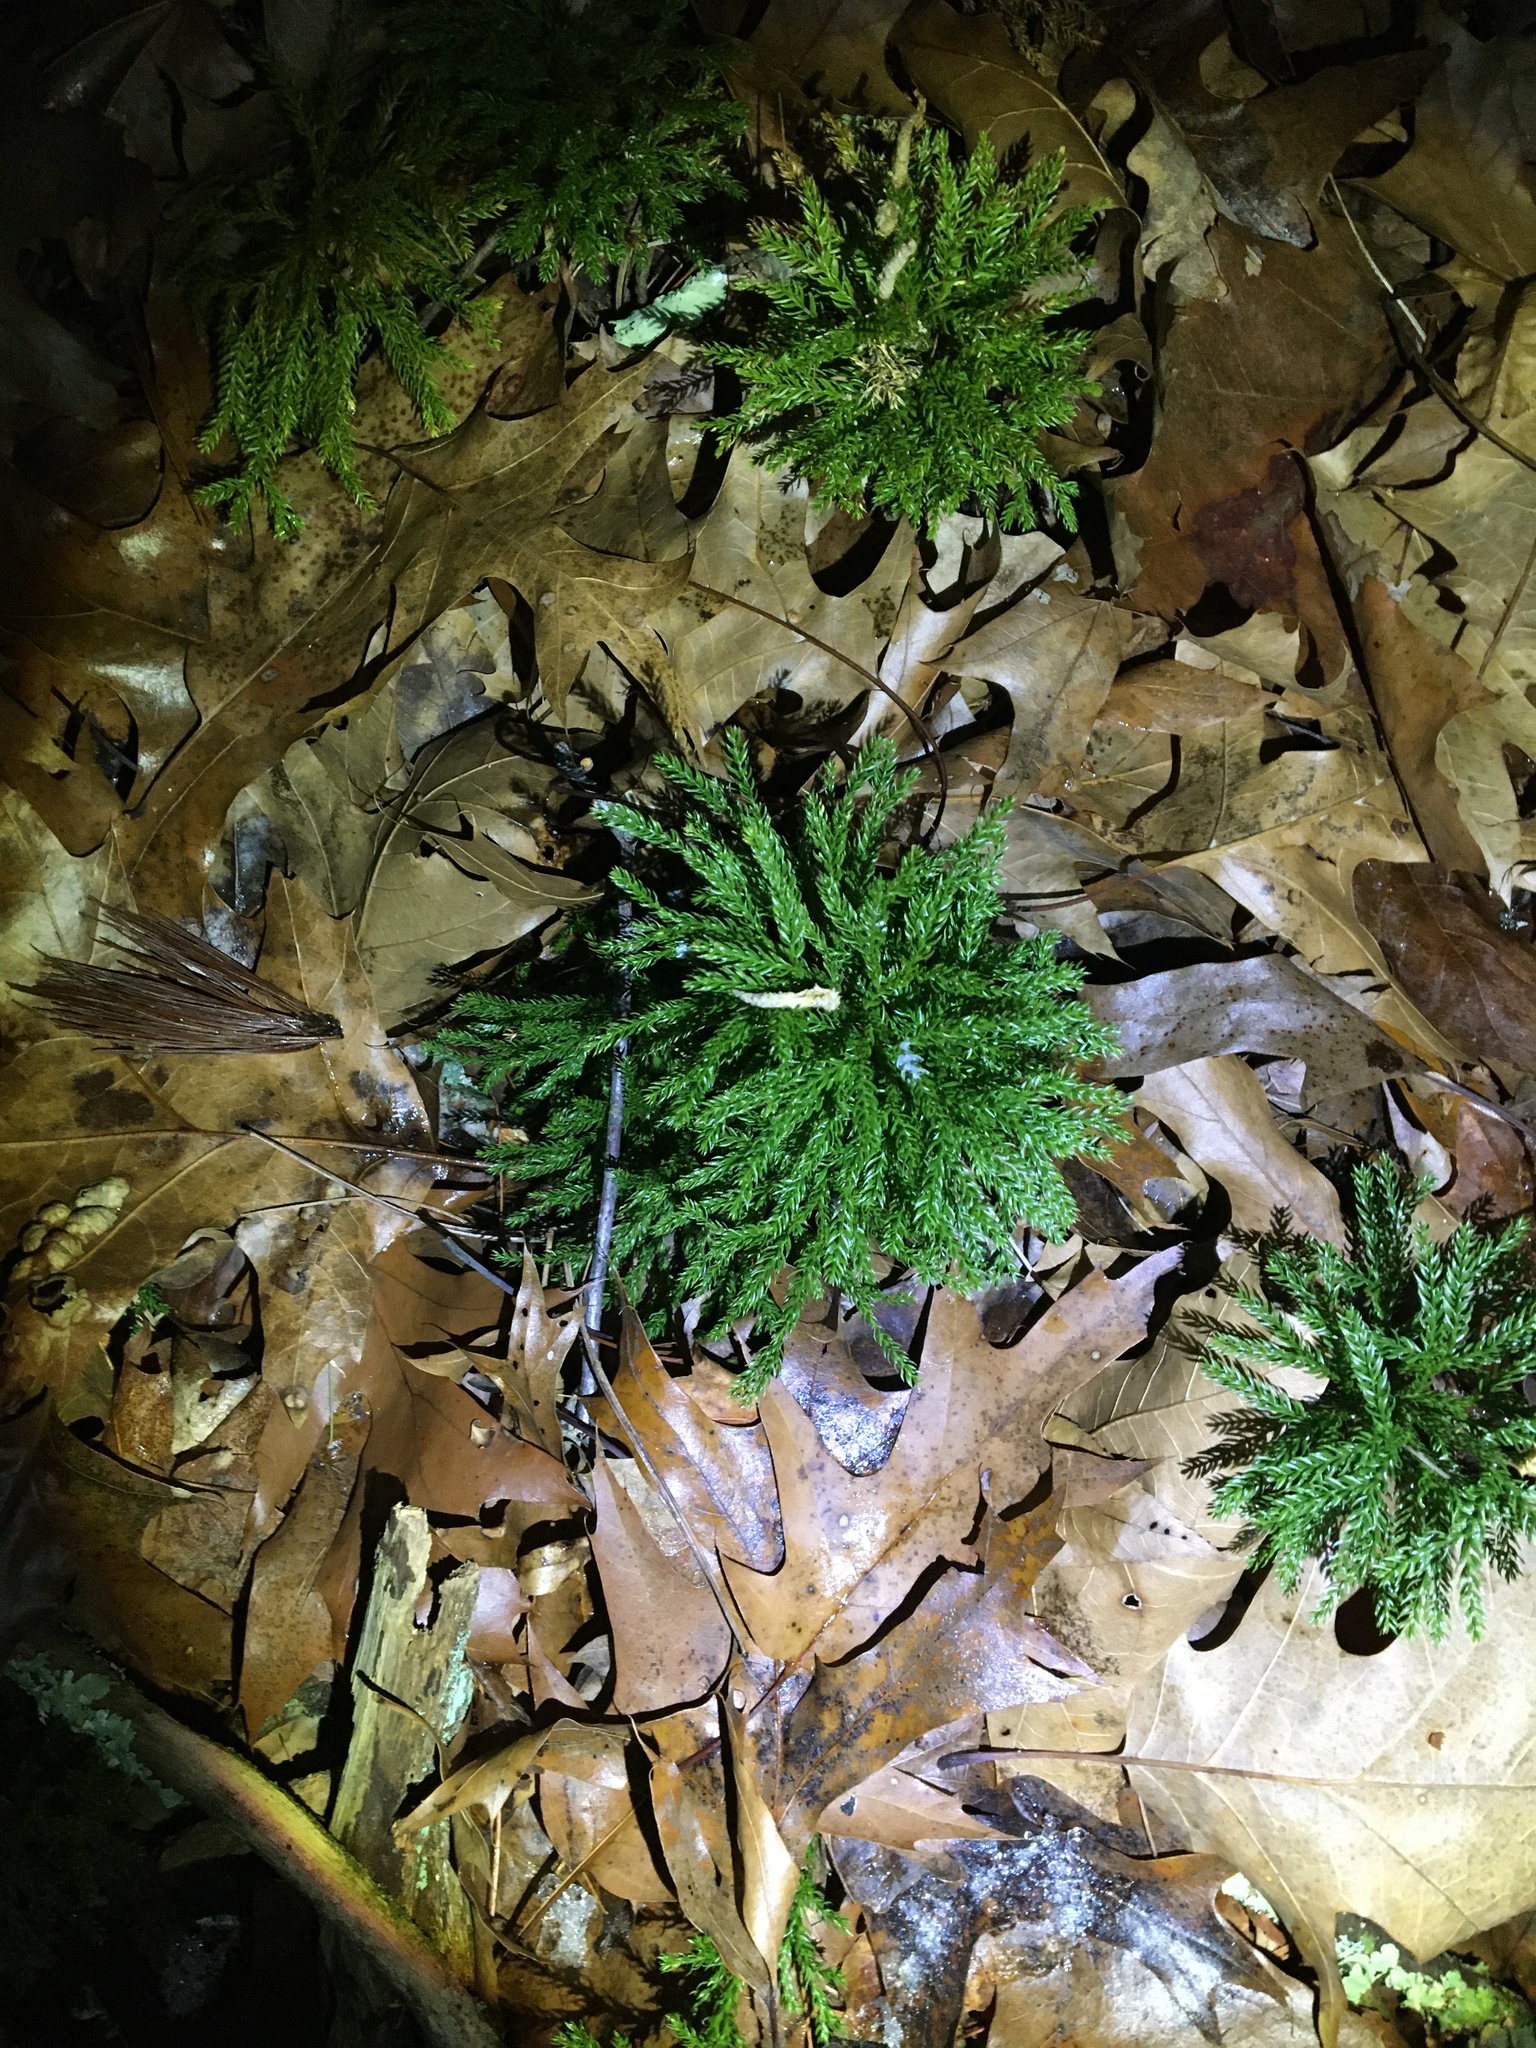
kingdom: Plantae
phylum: Tracheophyta
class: Lycopodiopsida
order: Lycopodiales
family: Lycopodiaceae
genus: Dendrolycopodium
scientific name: Dendrolycopodium obscurum
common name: Common ground-pine
